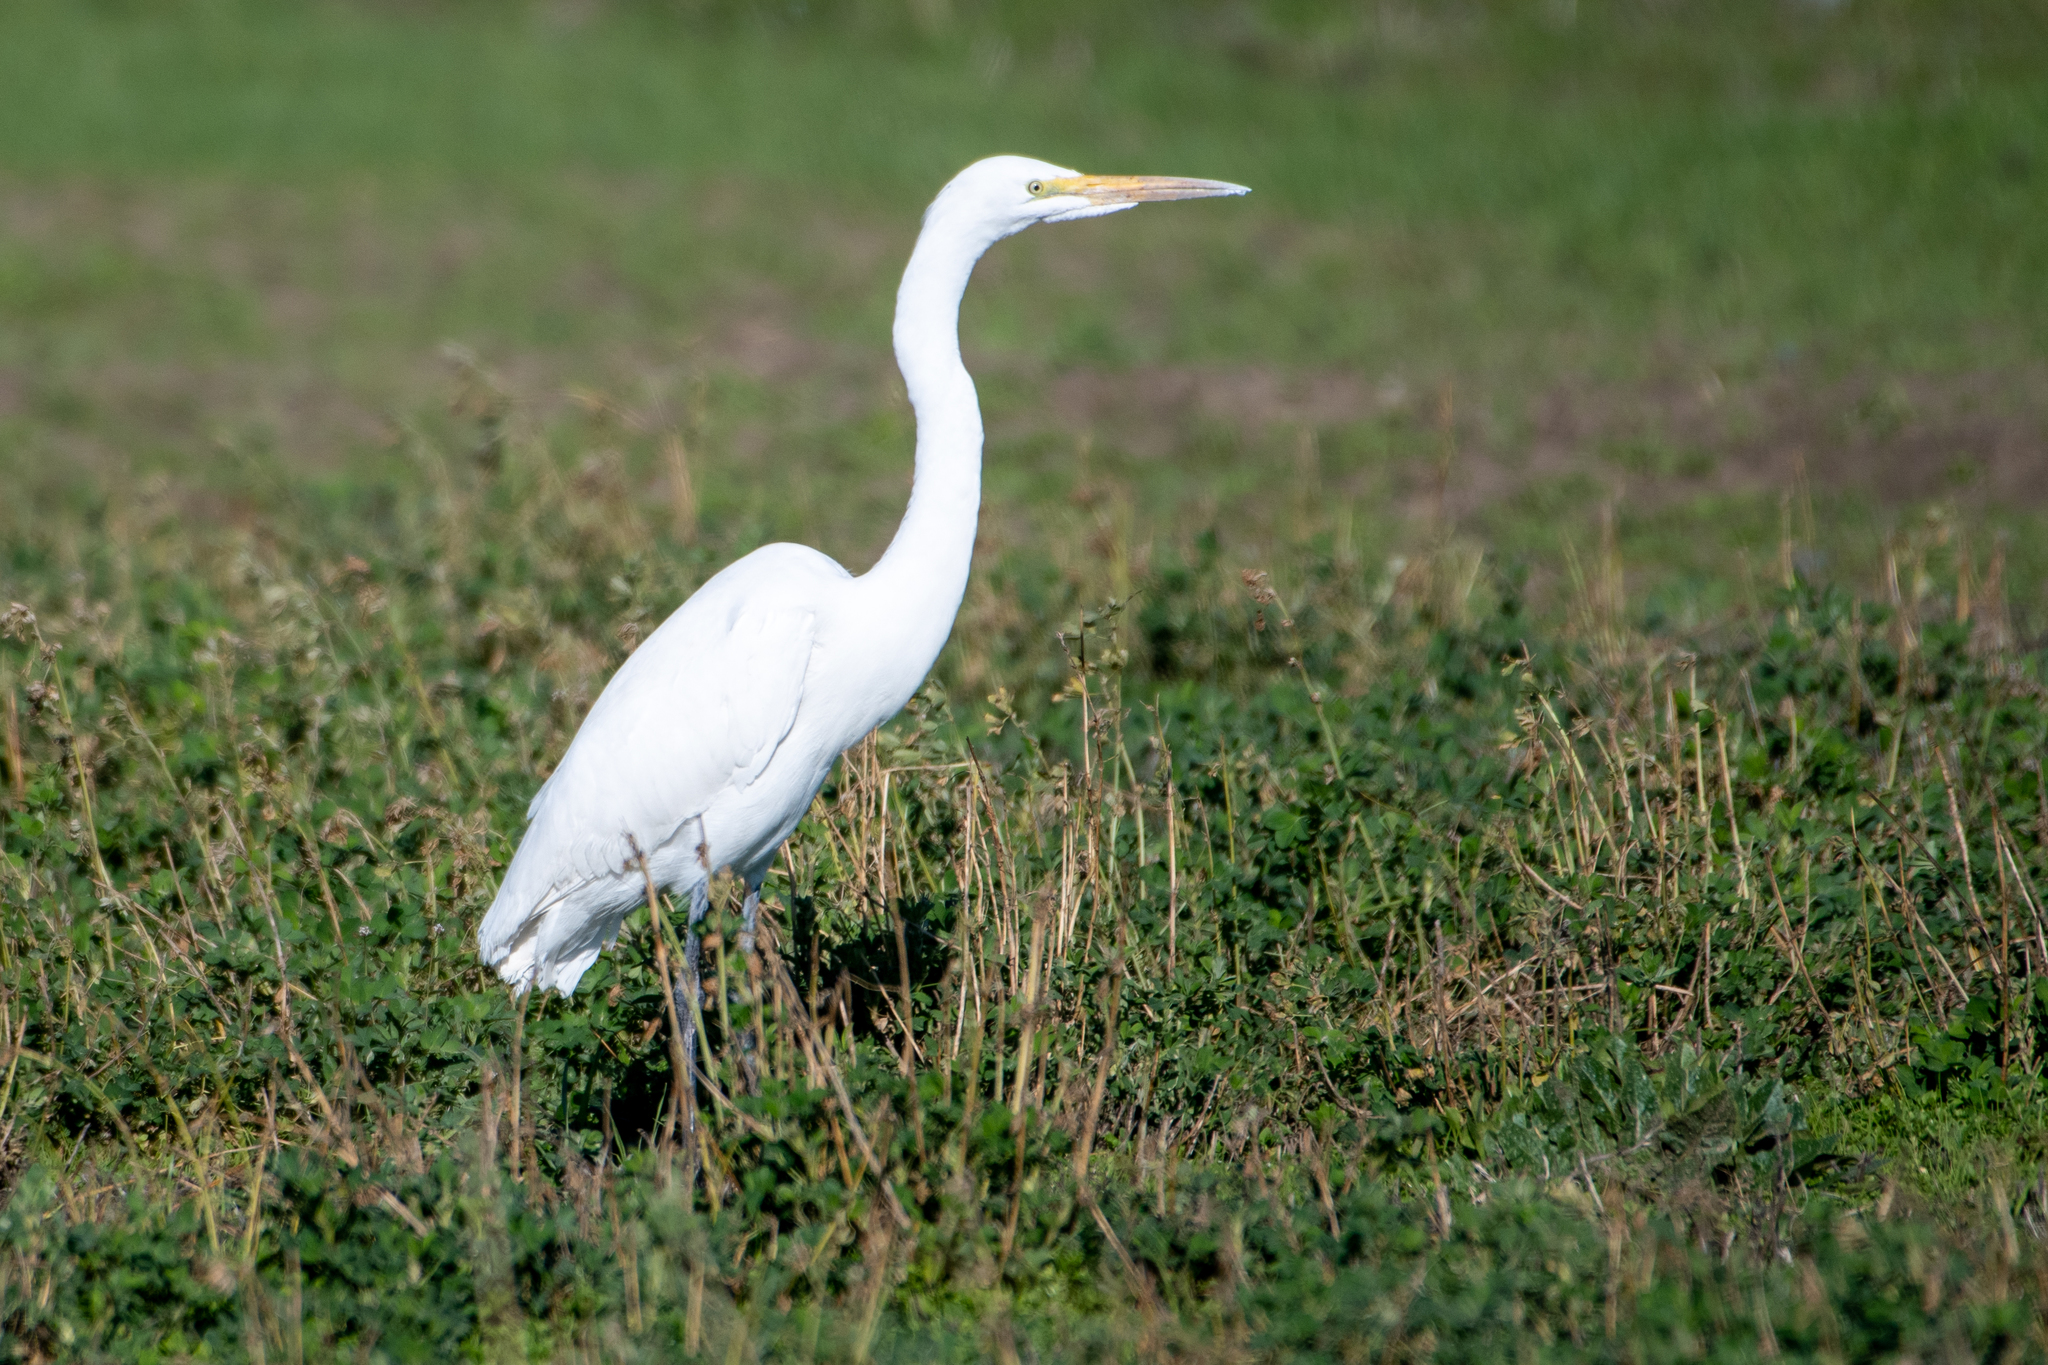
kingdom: Animalia
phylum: Chordata
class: Aves
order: Pelecaniformes
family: Ardeidae
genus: Ardea
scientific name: Ardea alba
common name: Great egret
